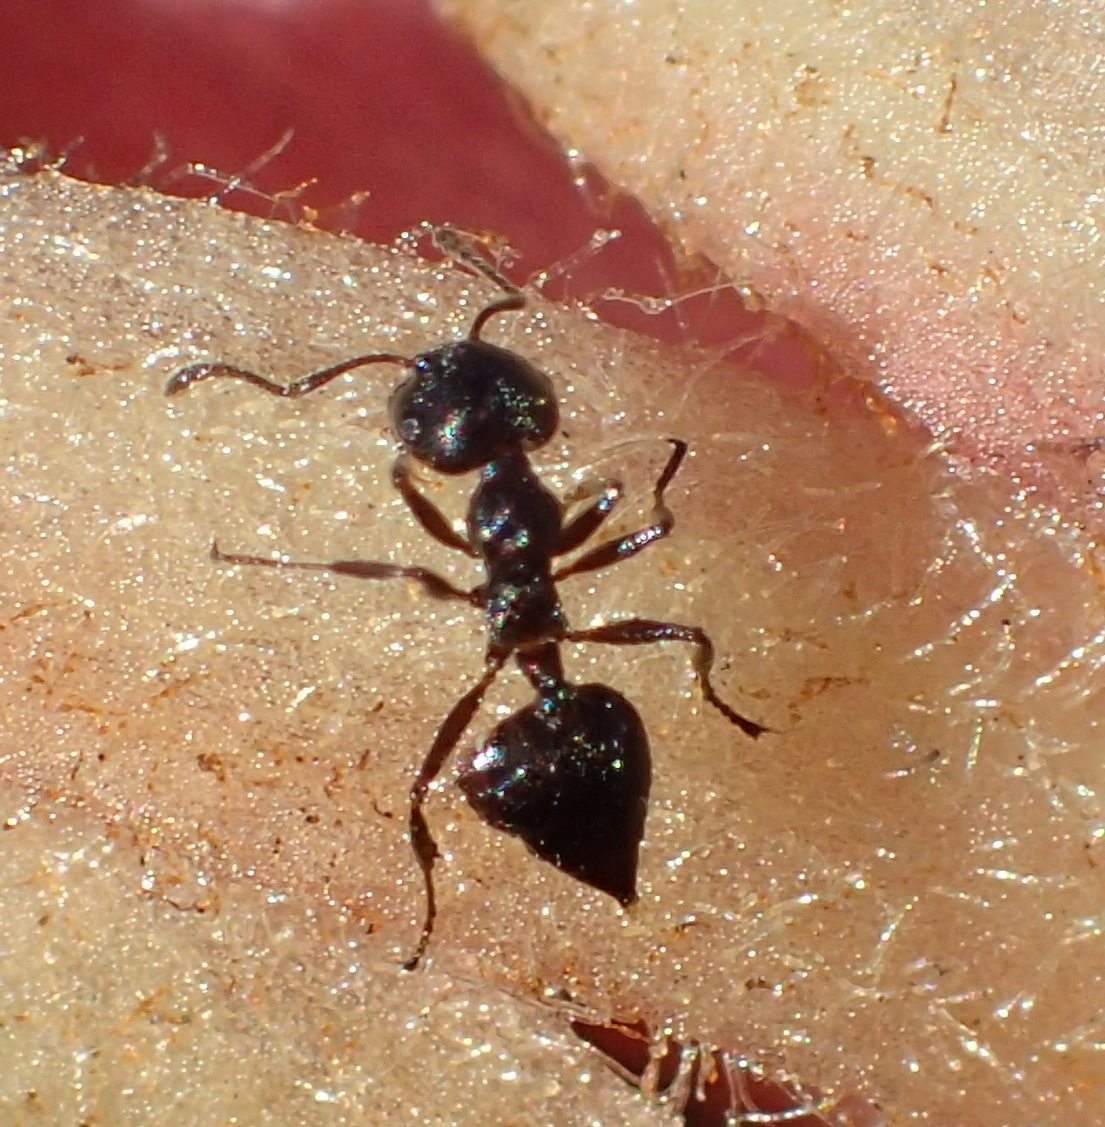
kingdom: Animalia
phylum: Arthropoda
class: Insecta
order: Hymenoptera
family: Formicidae
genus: Crematogaster
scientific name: Crematogaster peringueyi
